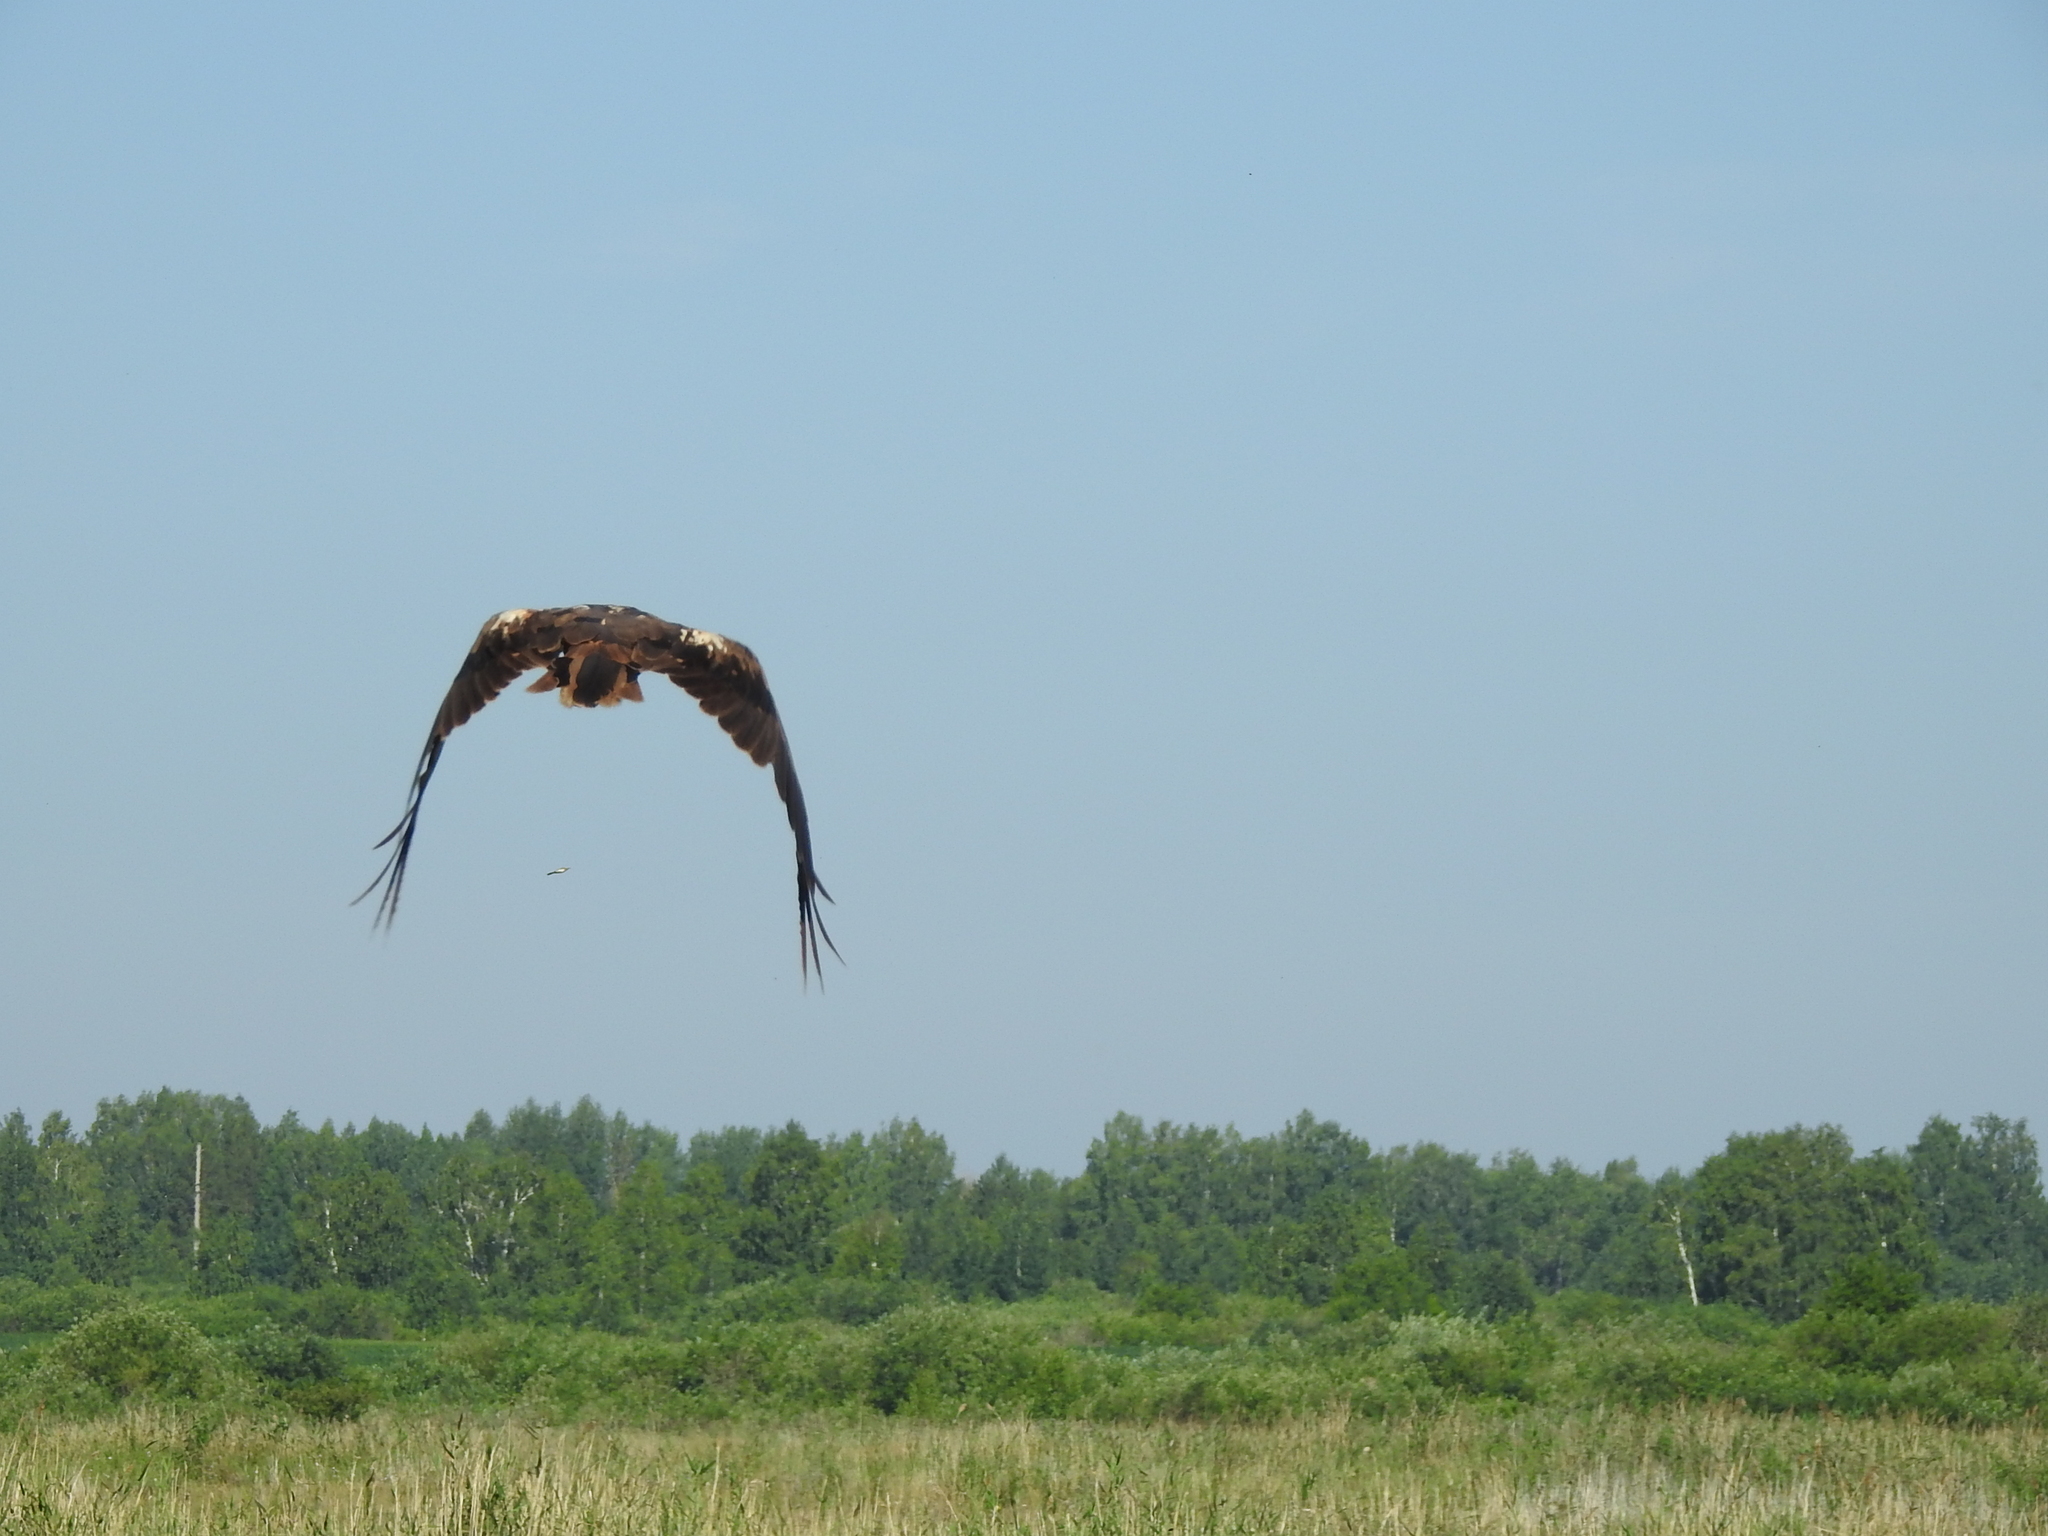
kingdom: Animalia
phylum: Chordata
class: Aves
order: Accipitriformes
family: Accipitridae
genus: Circus
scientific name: Circus aeruginosus
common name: Western marsh harrier
